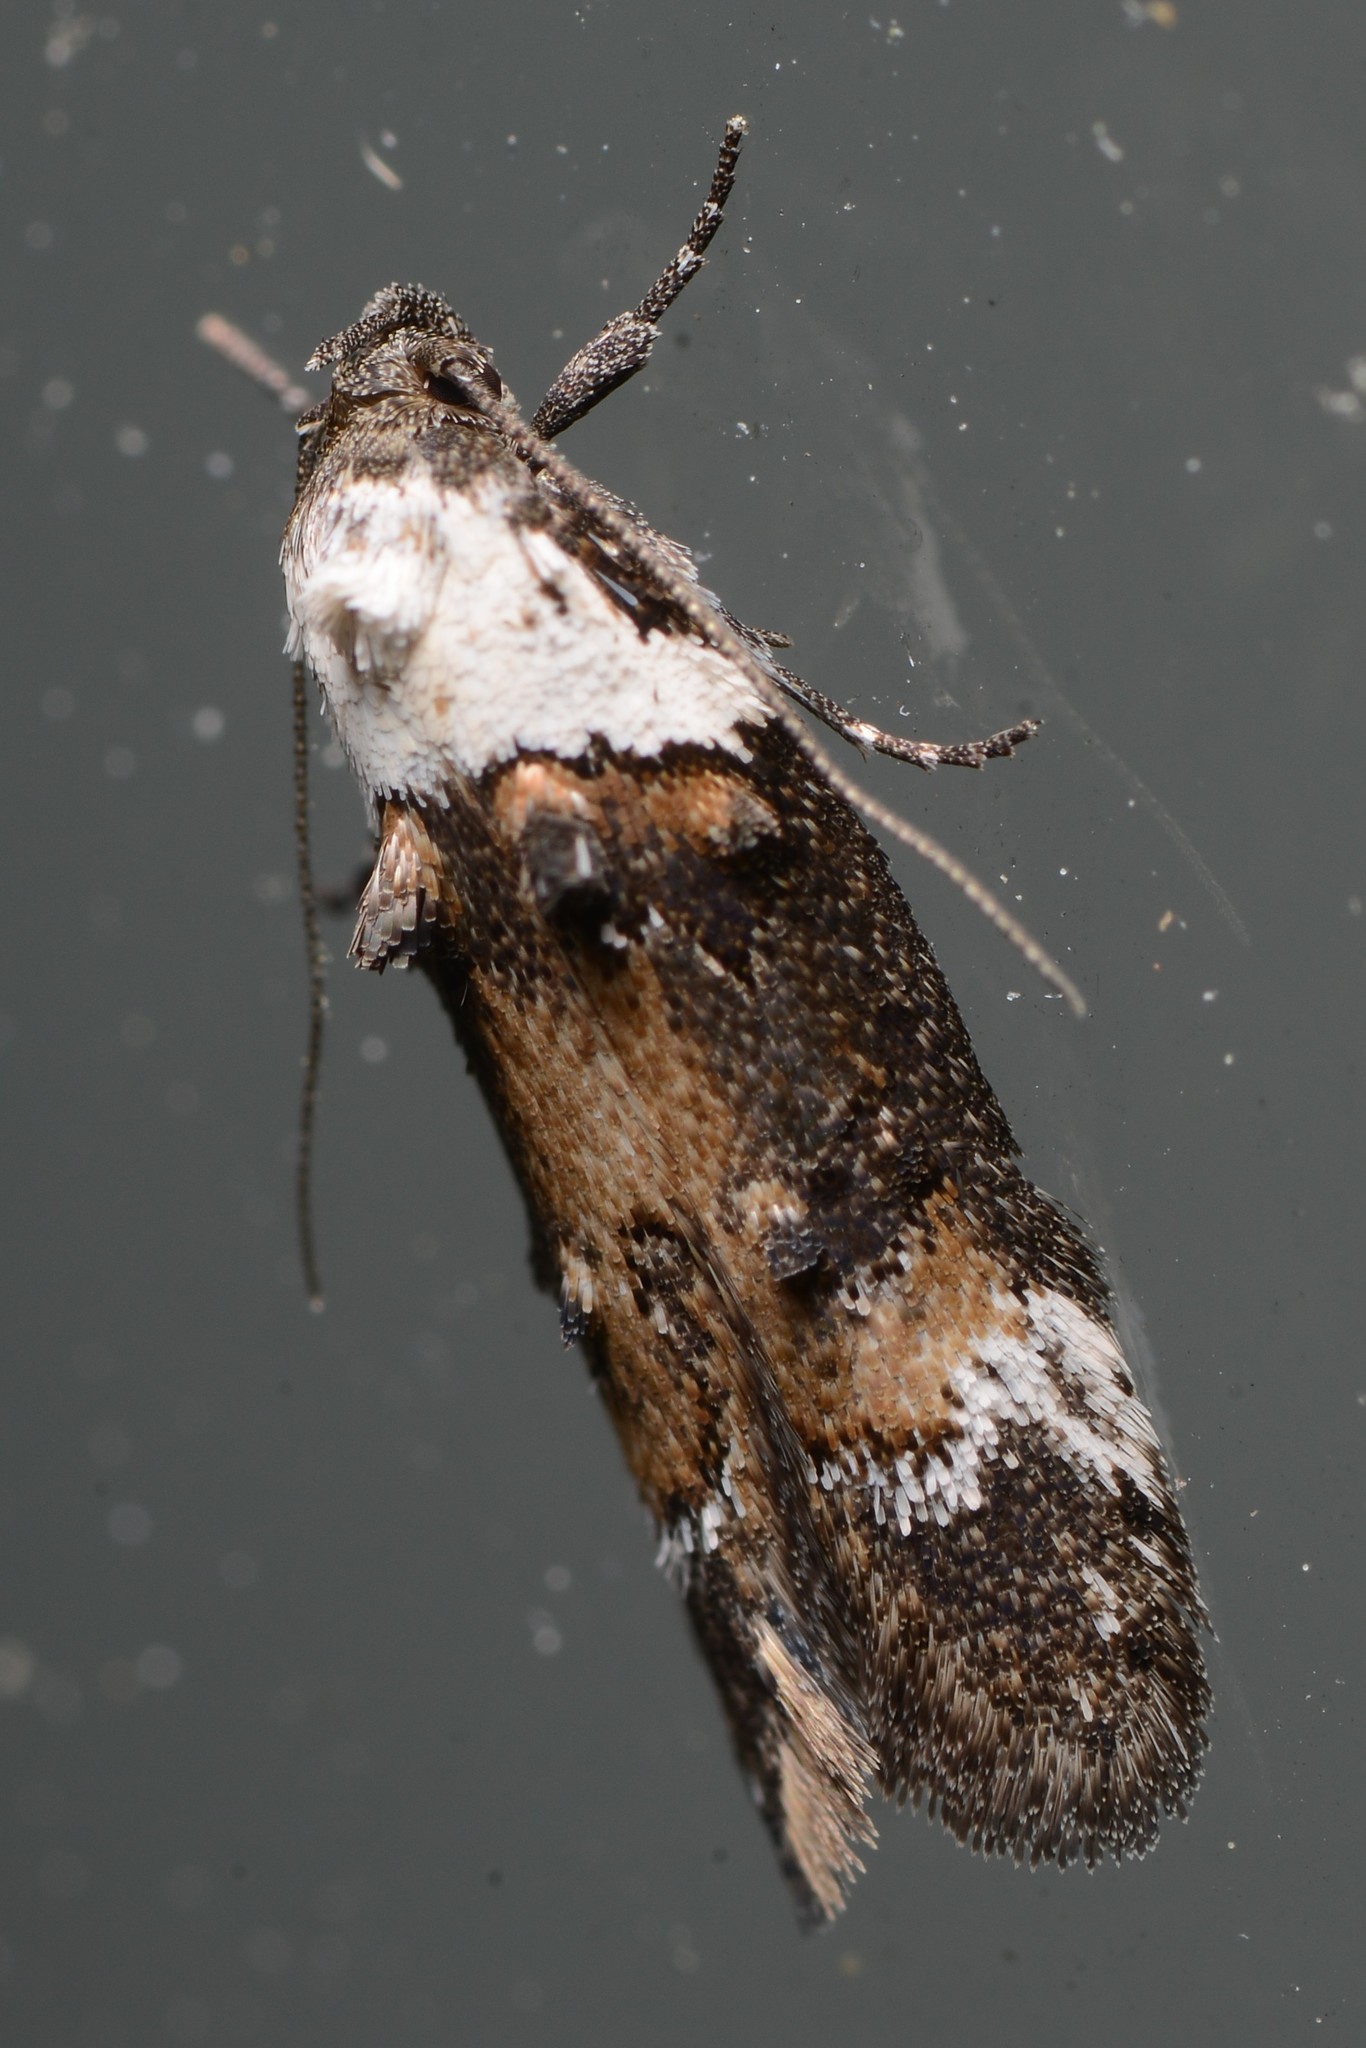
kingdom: Animalia
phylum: Arthropoda
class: Insecta
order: Lepidoptera
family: Oecophoridae
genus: Trachypepla
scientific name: Trachypepla conspicuella
